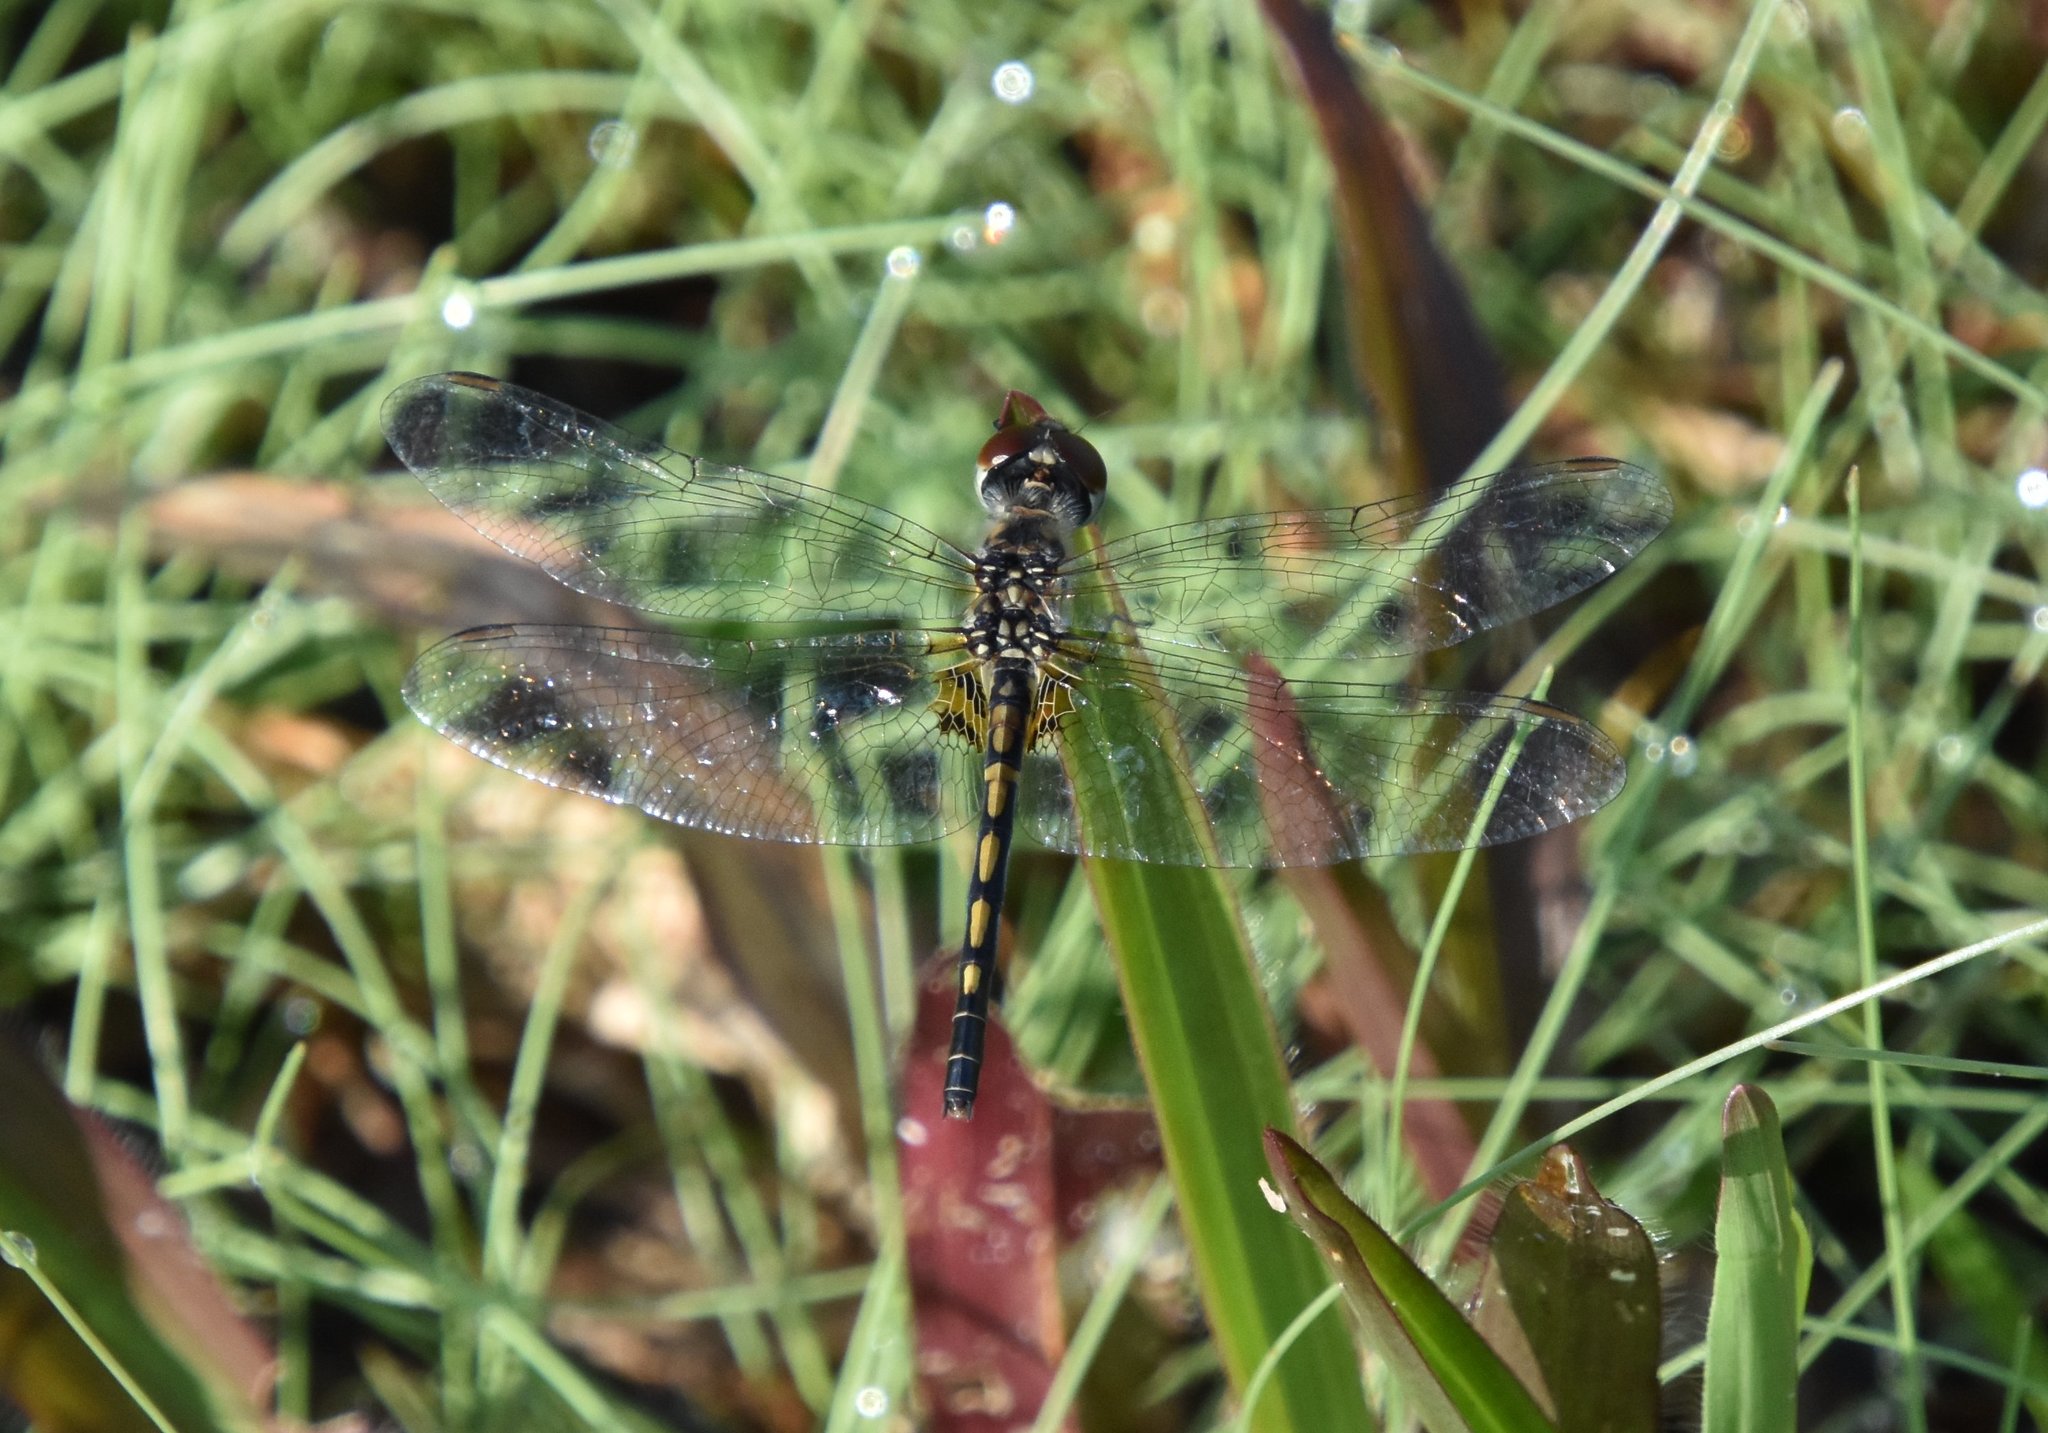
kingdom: Animalia
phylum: Arthropoda
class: Insecta
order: Odonata
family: Libellulidae
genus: Celithemis
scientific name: Celithemis ornata
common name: Ornate pennant
